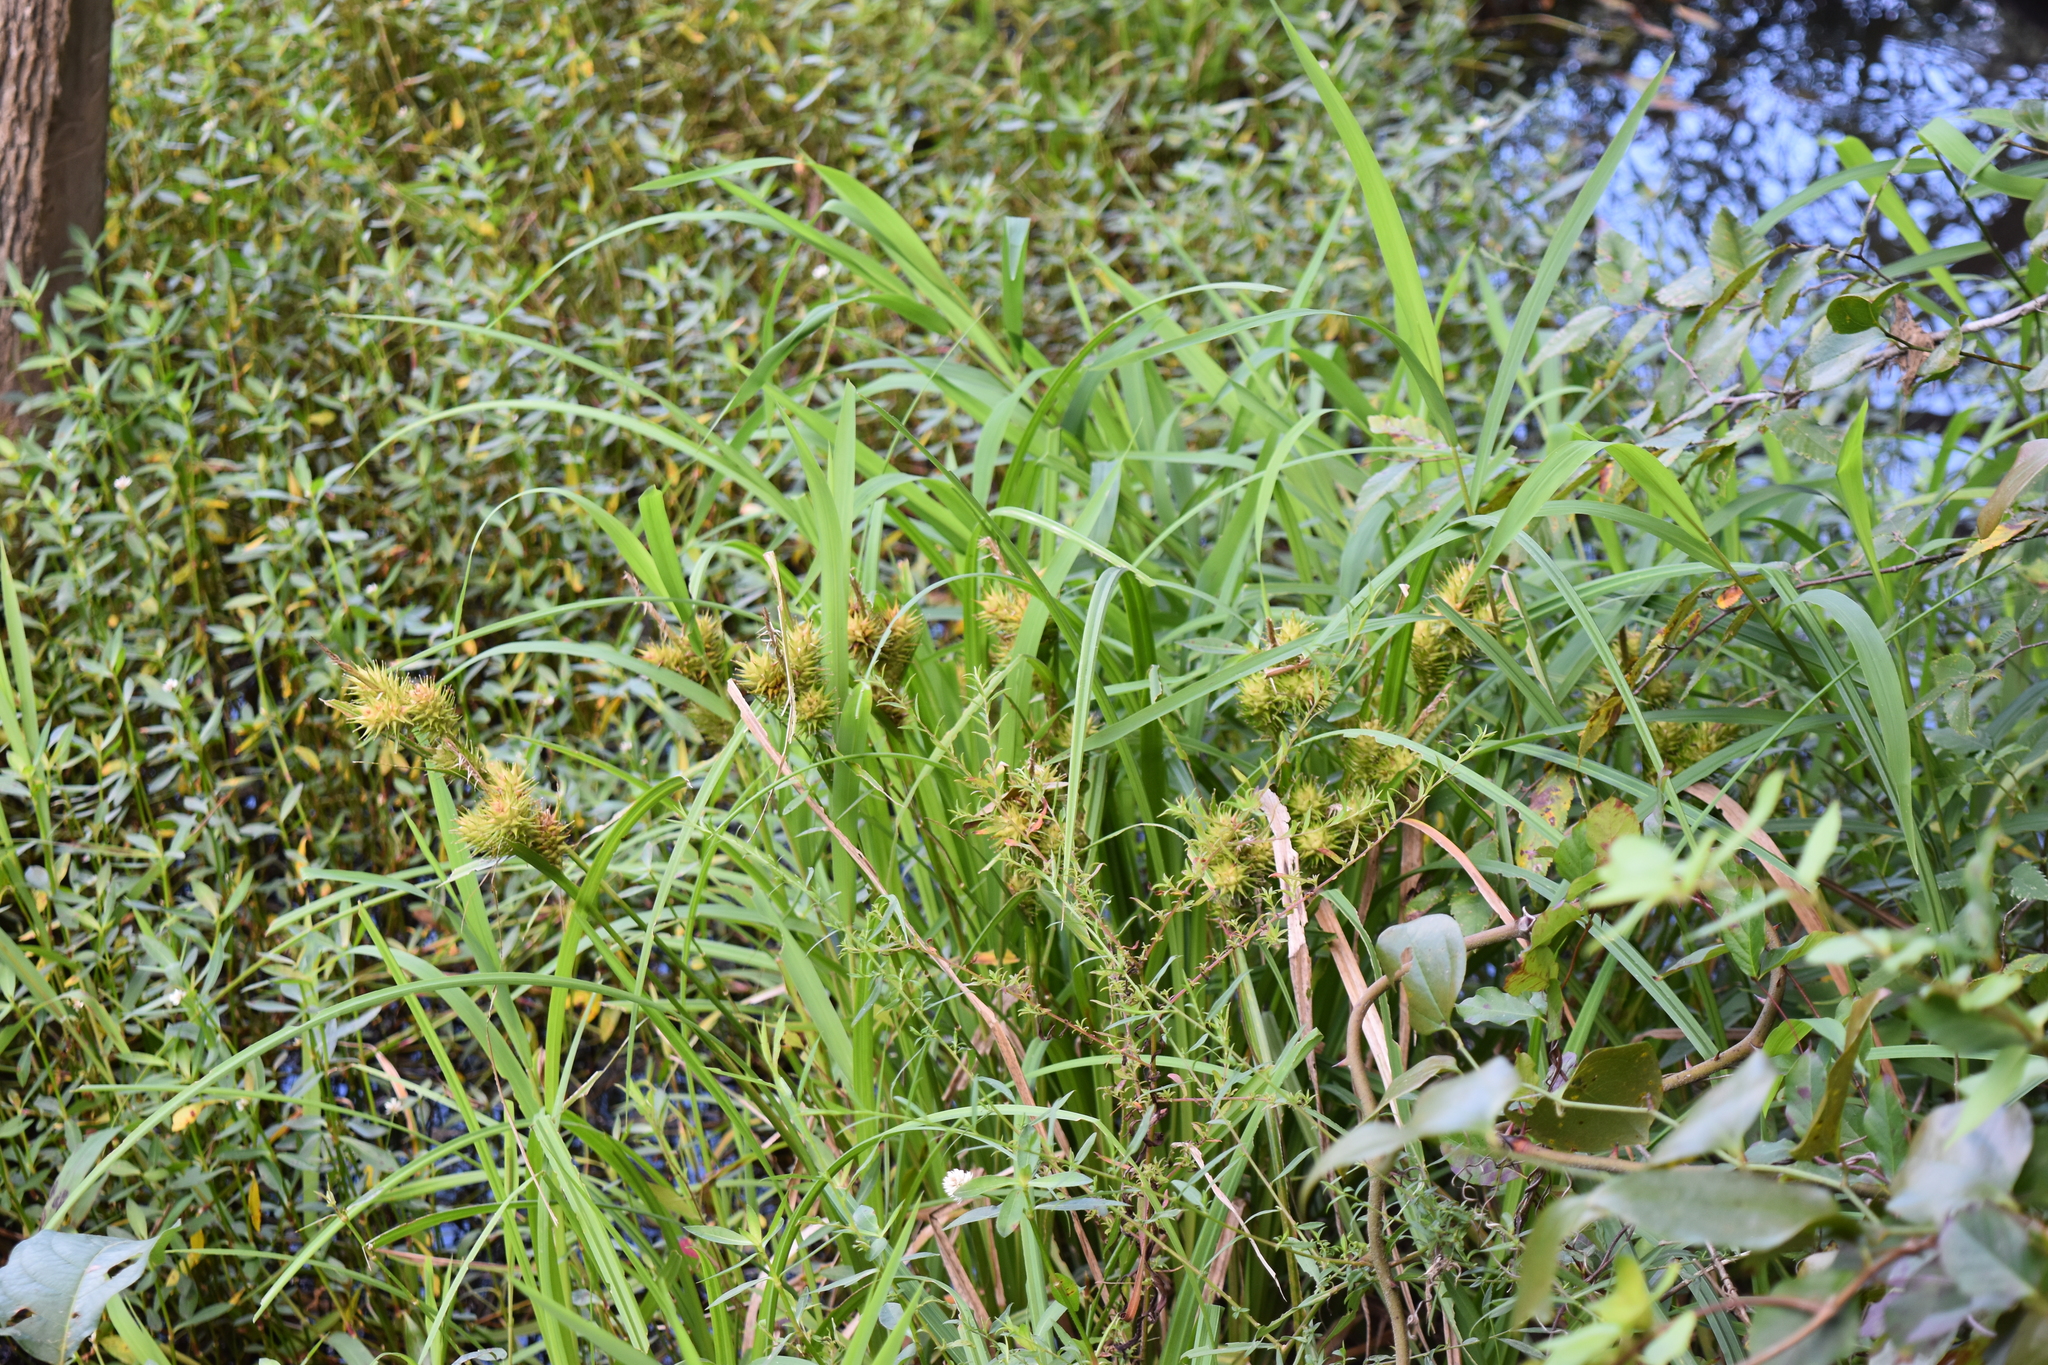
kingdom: Plantae
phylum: Tracheophyta
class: Liliopsida
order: Poales
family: Cyperaceae
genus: Carex
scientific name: Carex lupulina
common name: Hop sedge
